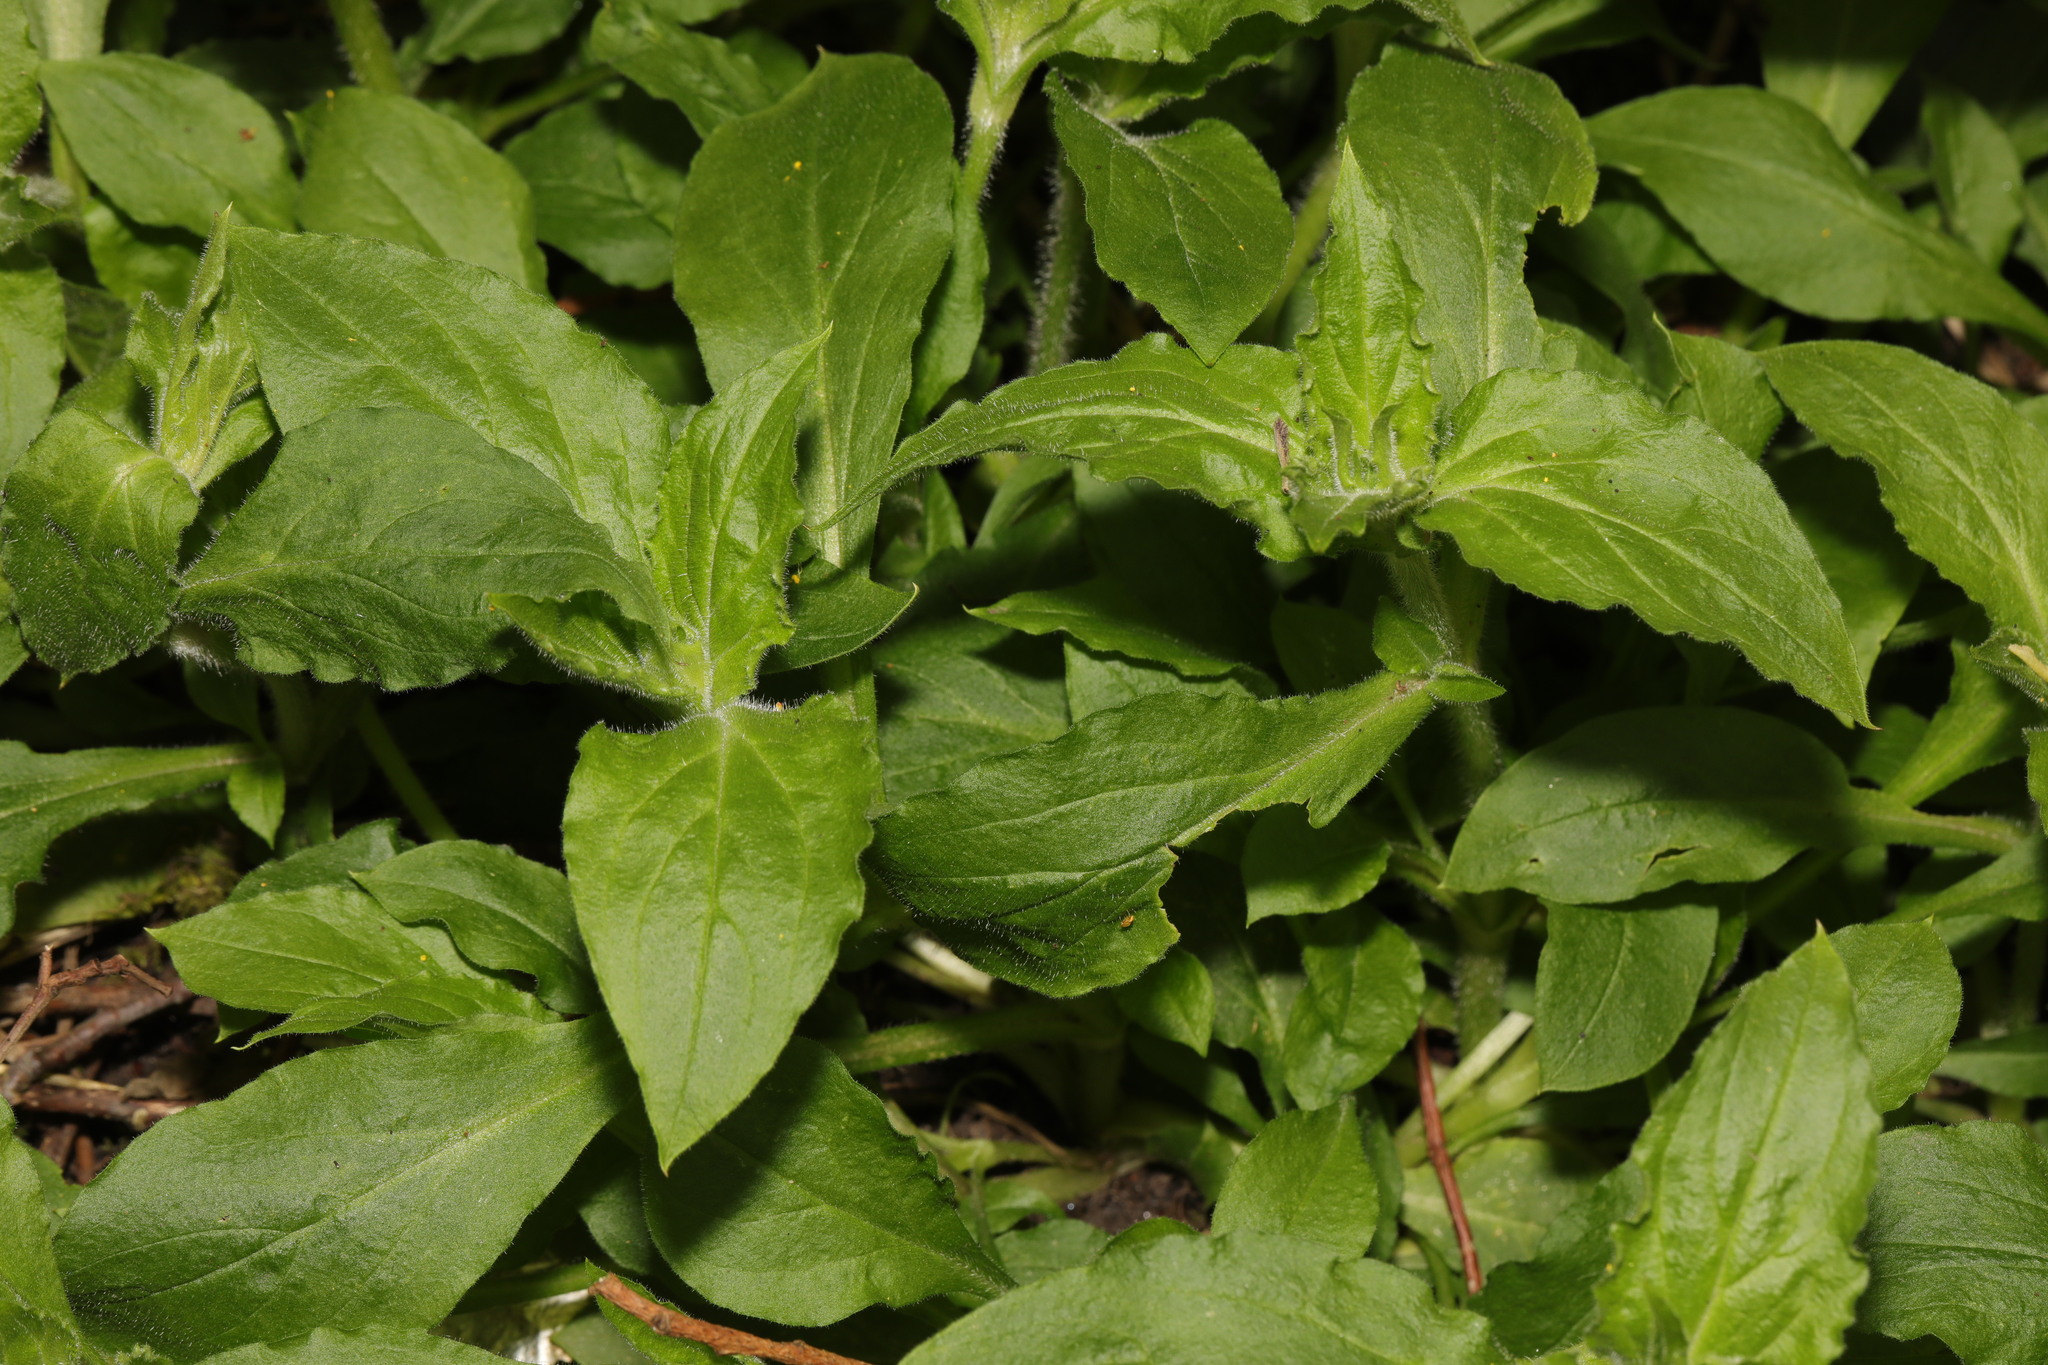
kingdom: Plantae
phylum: Tracheophyta
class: Magnoliopsida
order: Caryophyllales
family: Caryophyllaceae
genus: Silene
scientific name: Silene dioica
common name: Red campion
